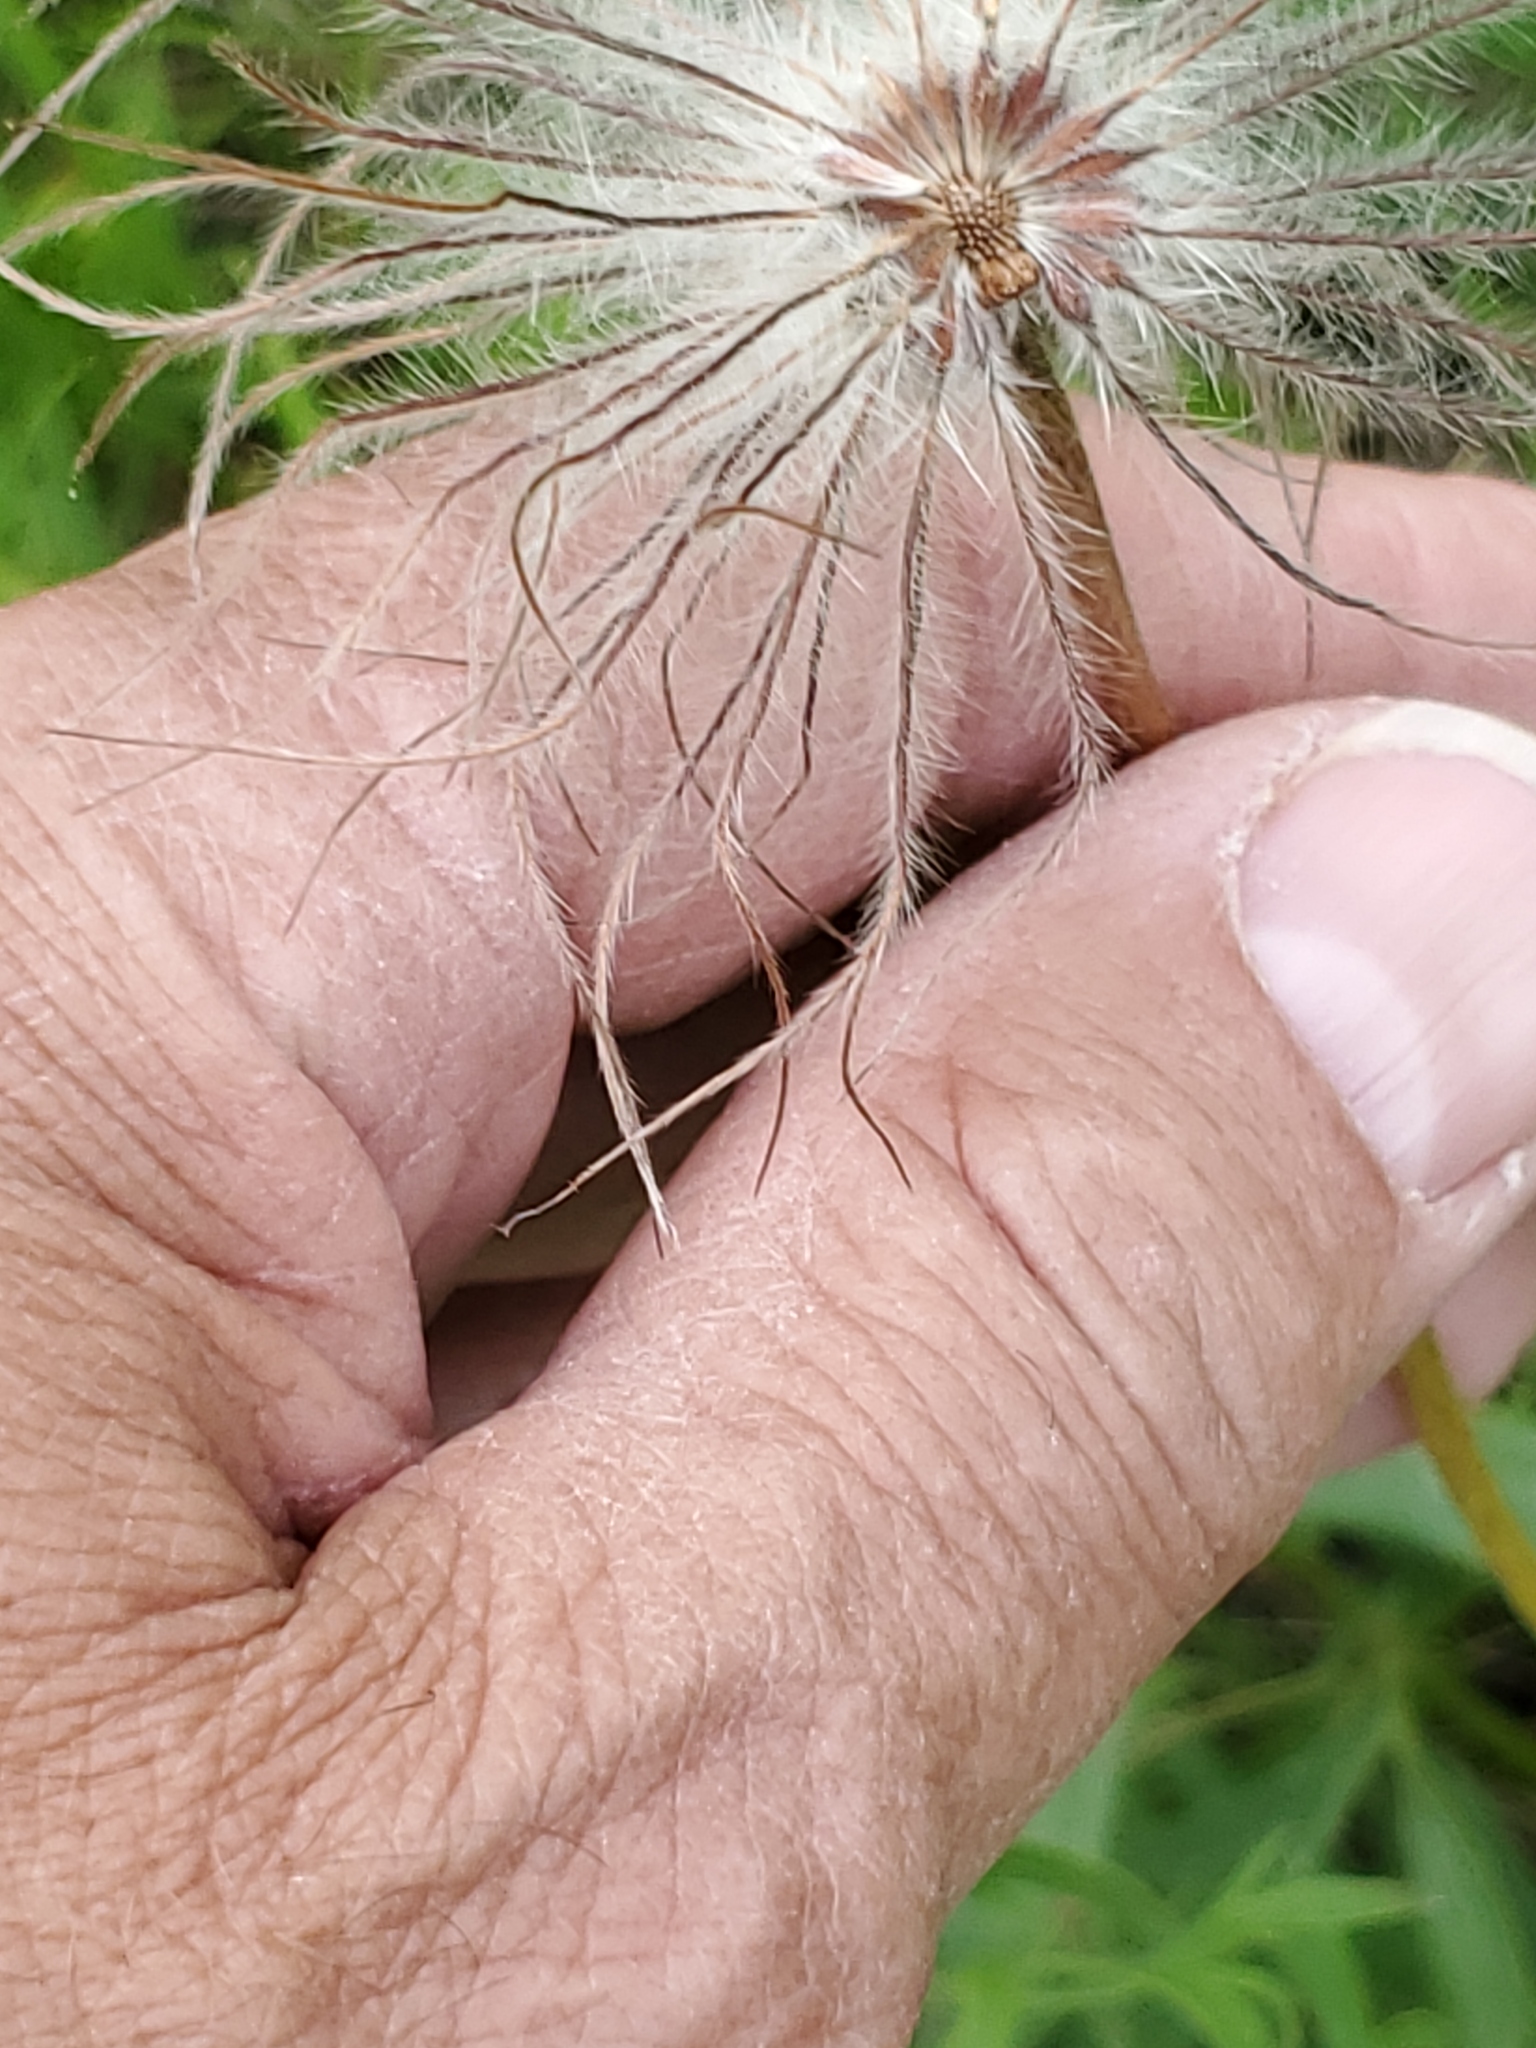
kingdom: Plantae
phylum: Tracheophyta
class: Magnoliopsida
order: Ranunculales
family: Ranunculaceae
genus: Pulsatilla
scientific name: Pulsatilla nuttalliana
